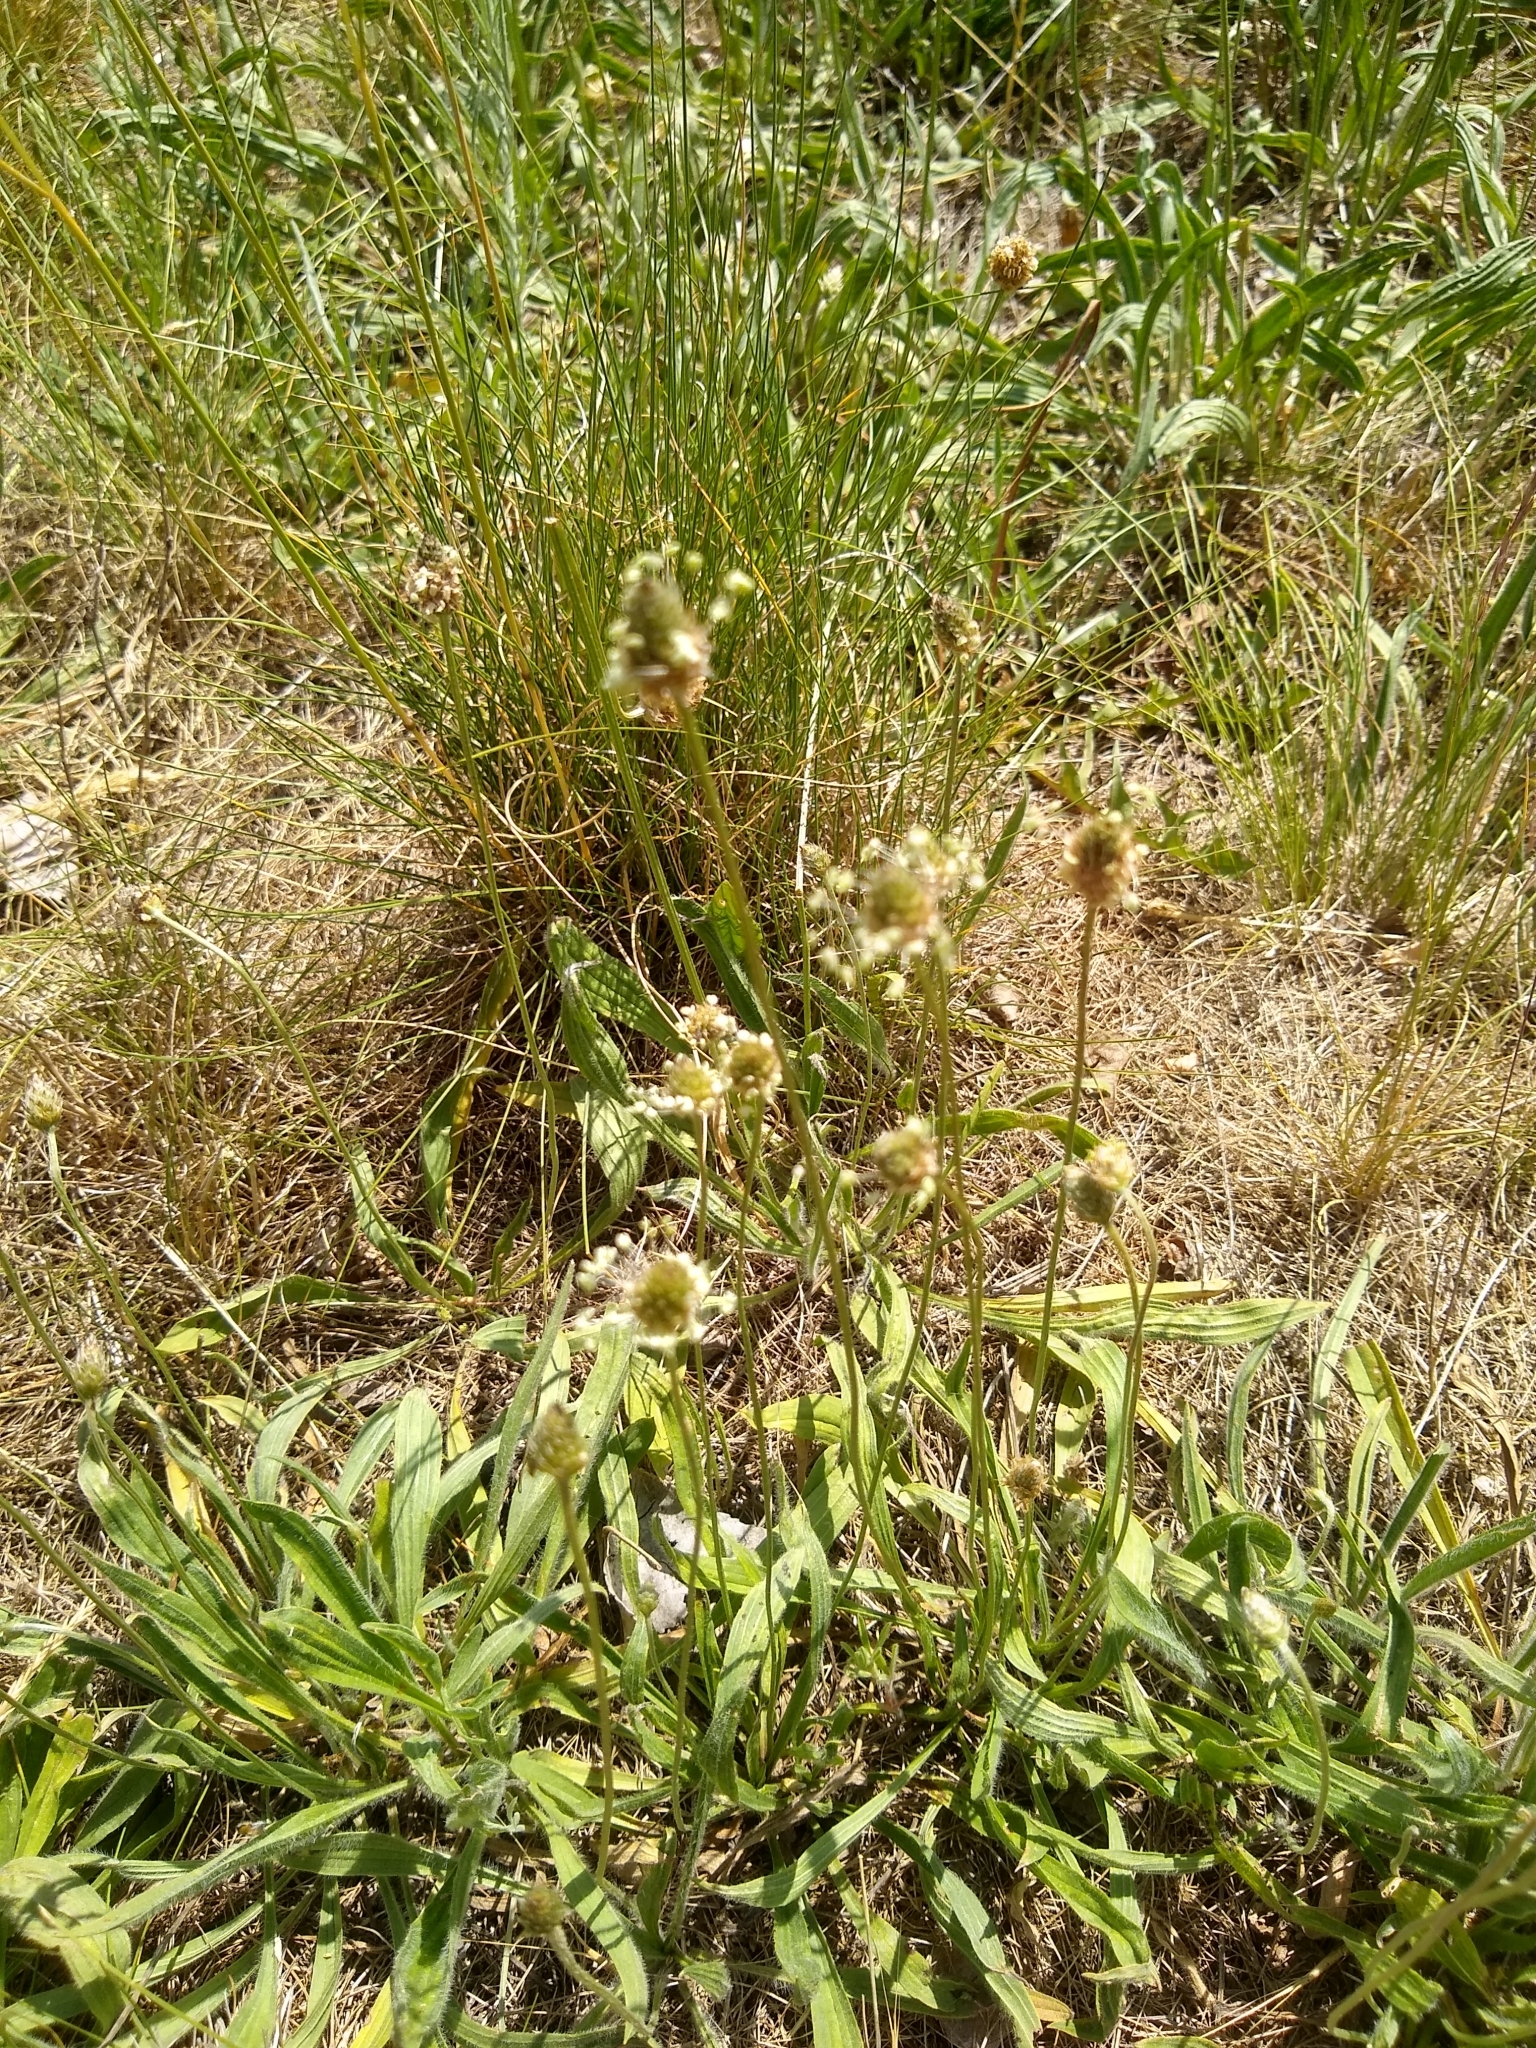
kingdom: Plantae
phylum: Tracheophyta
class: Magnoliopsida
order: Lamiales
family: Plantaginaceae
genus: Plantago
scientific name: Plantago lanceolata
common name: Ribwort plantain
